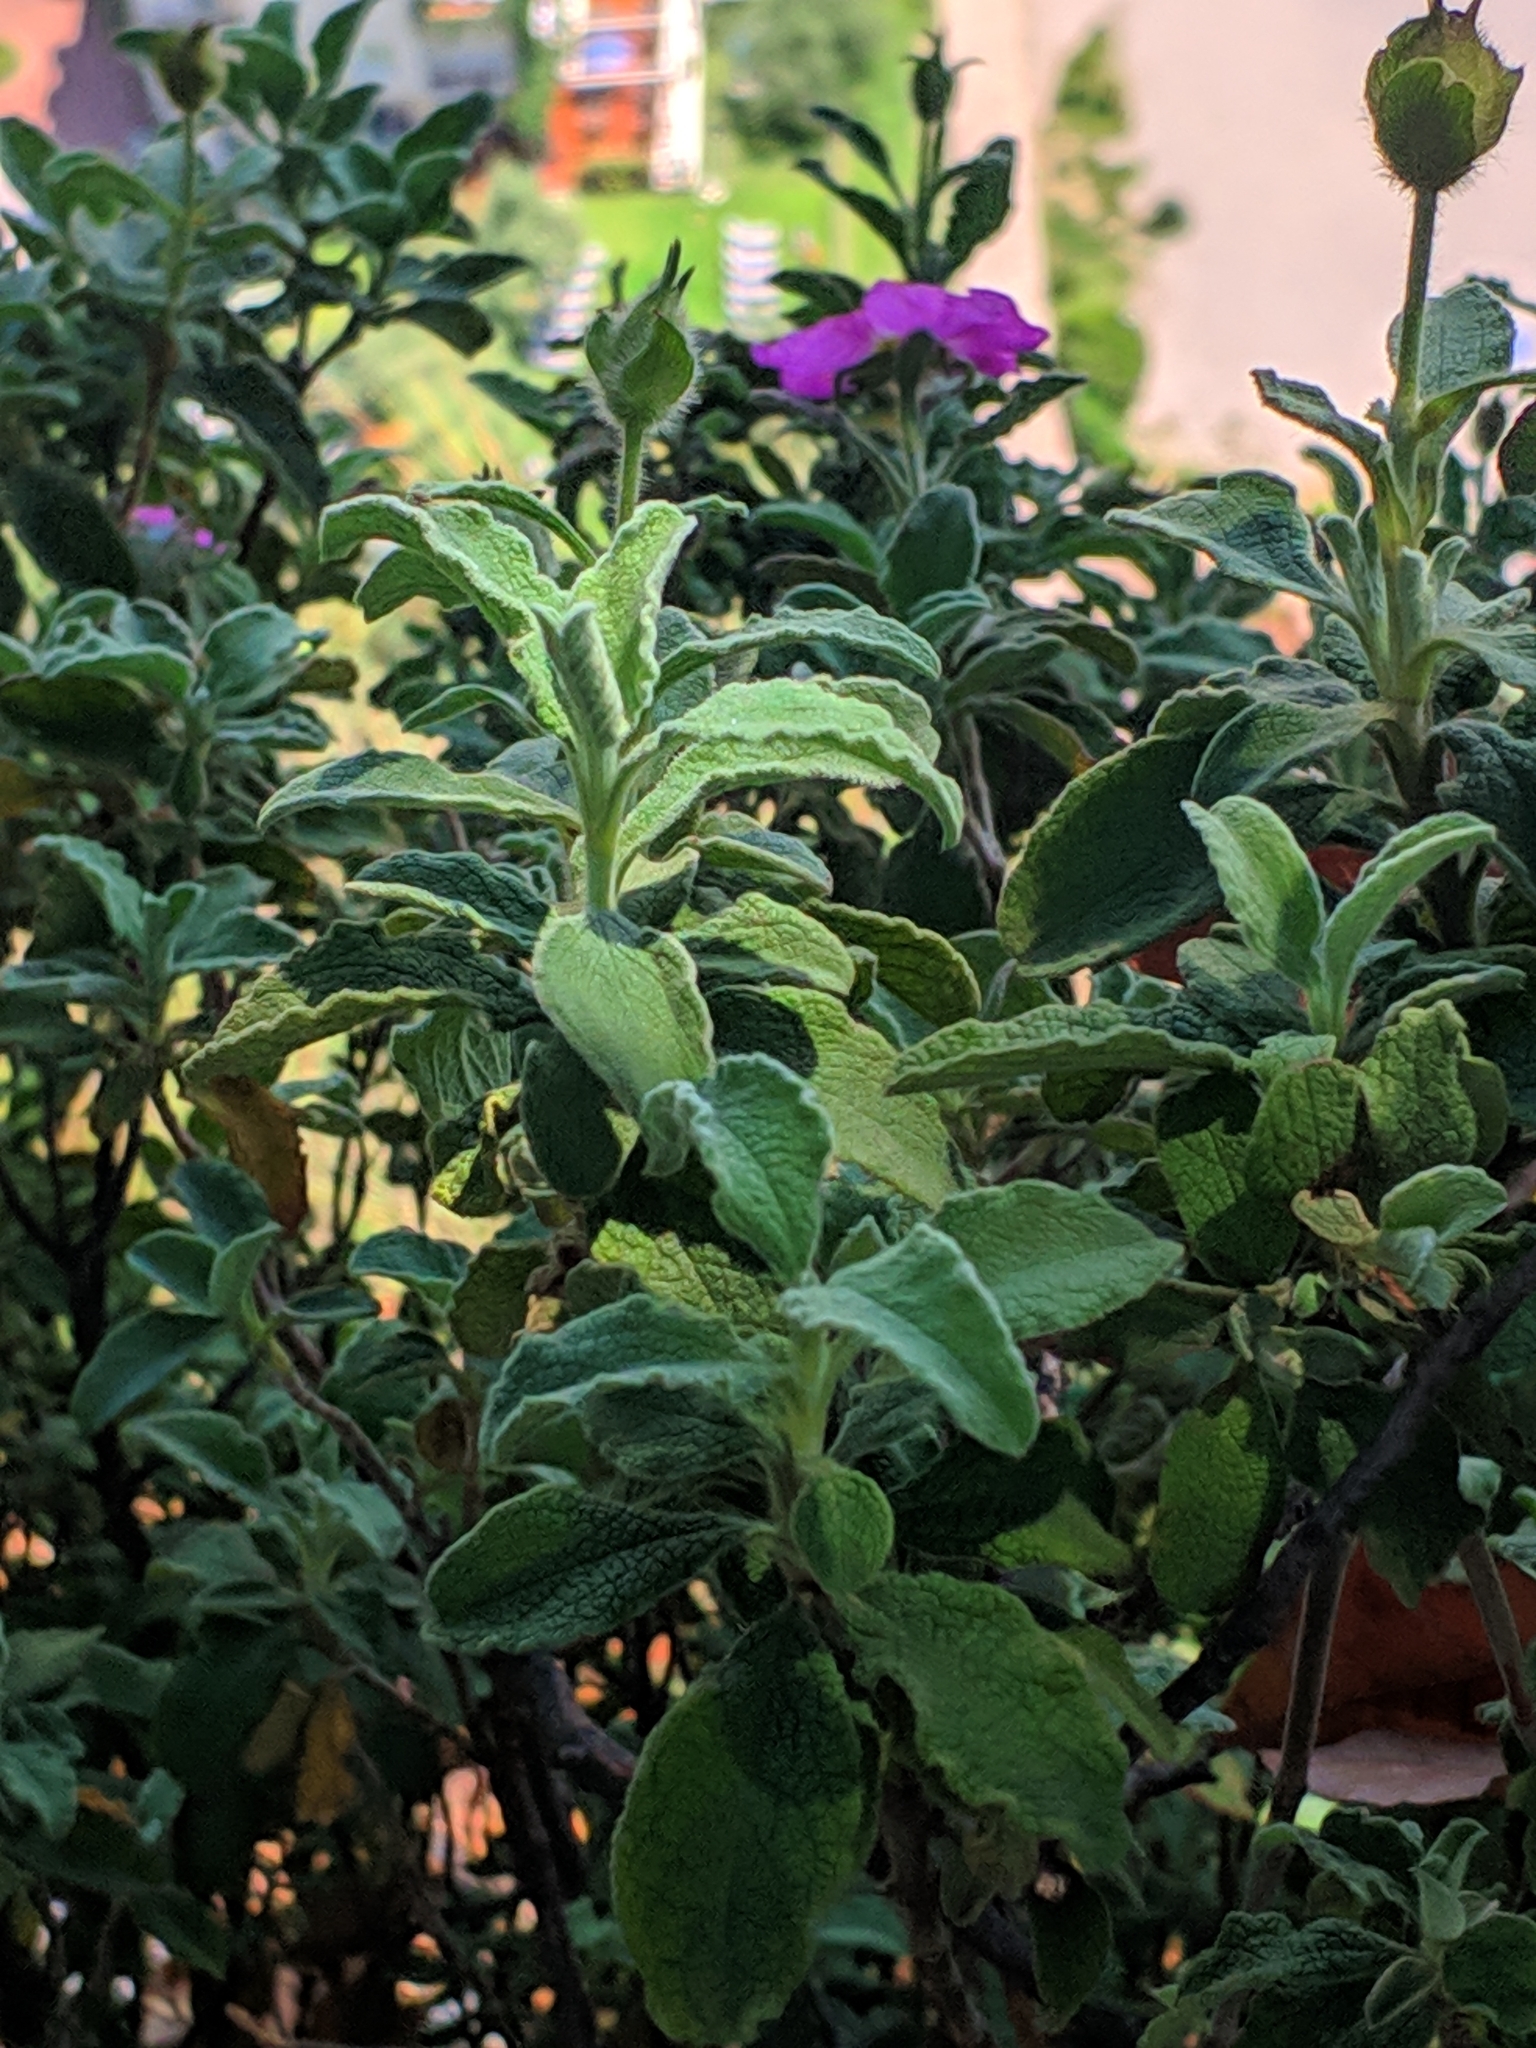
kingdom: Plantae
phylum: Tracheophyta
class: Magnoliopsida
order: Malvales
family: Cistaceae
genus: Cistus
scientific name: Cistus creticus
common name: Cretan rockrose
